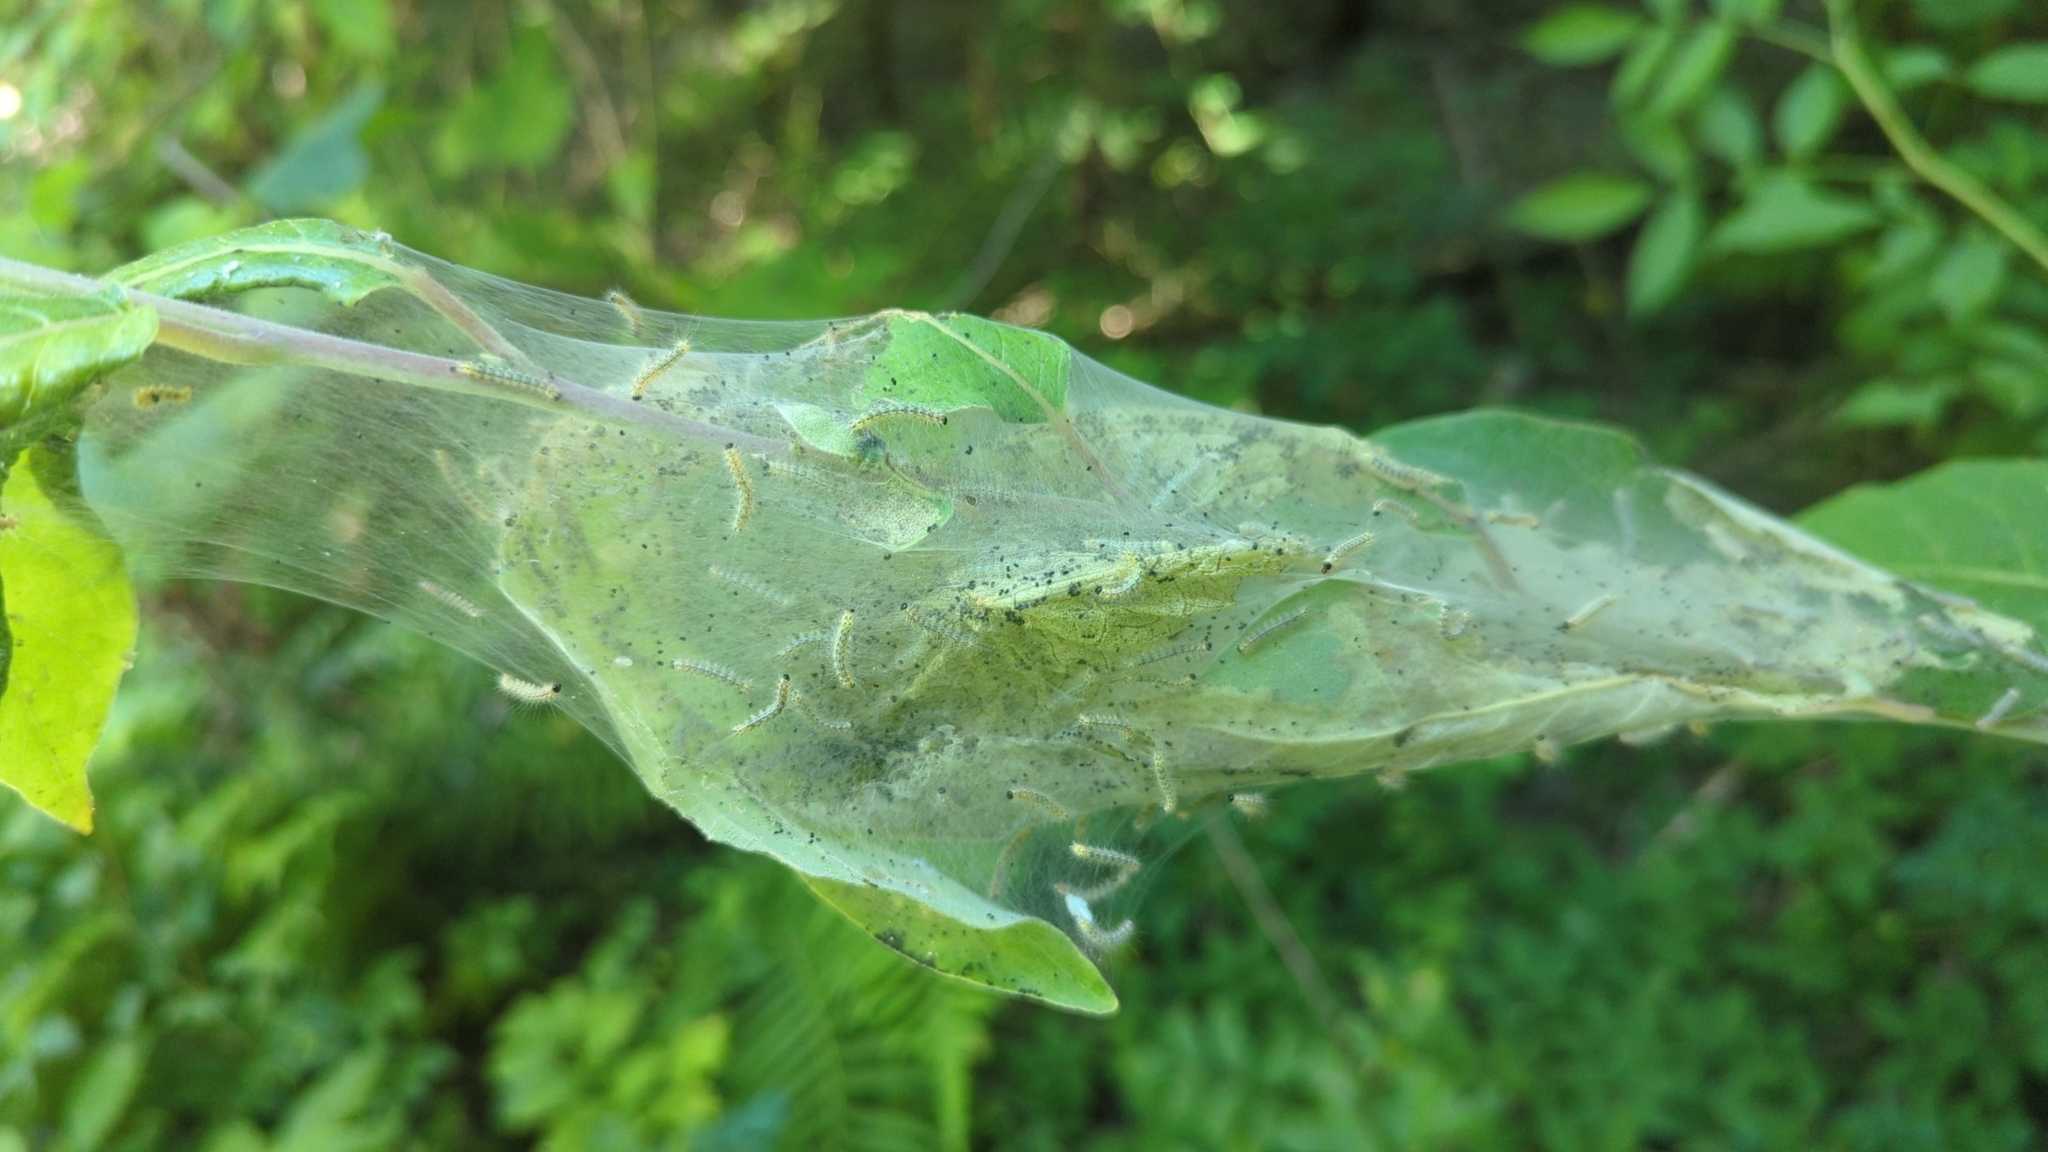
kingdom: Animalia
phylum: Arthropoda
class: Insecta
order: Lepidoptera
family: Erebidae
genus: Hyphantria
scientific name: Hyphantria cunea
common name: American white moth
